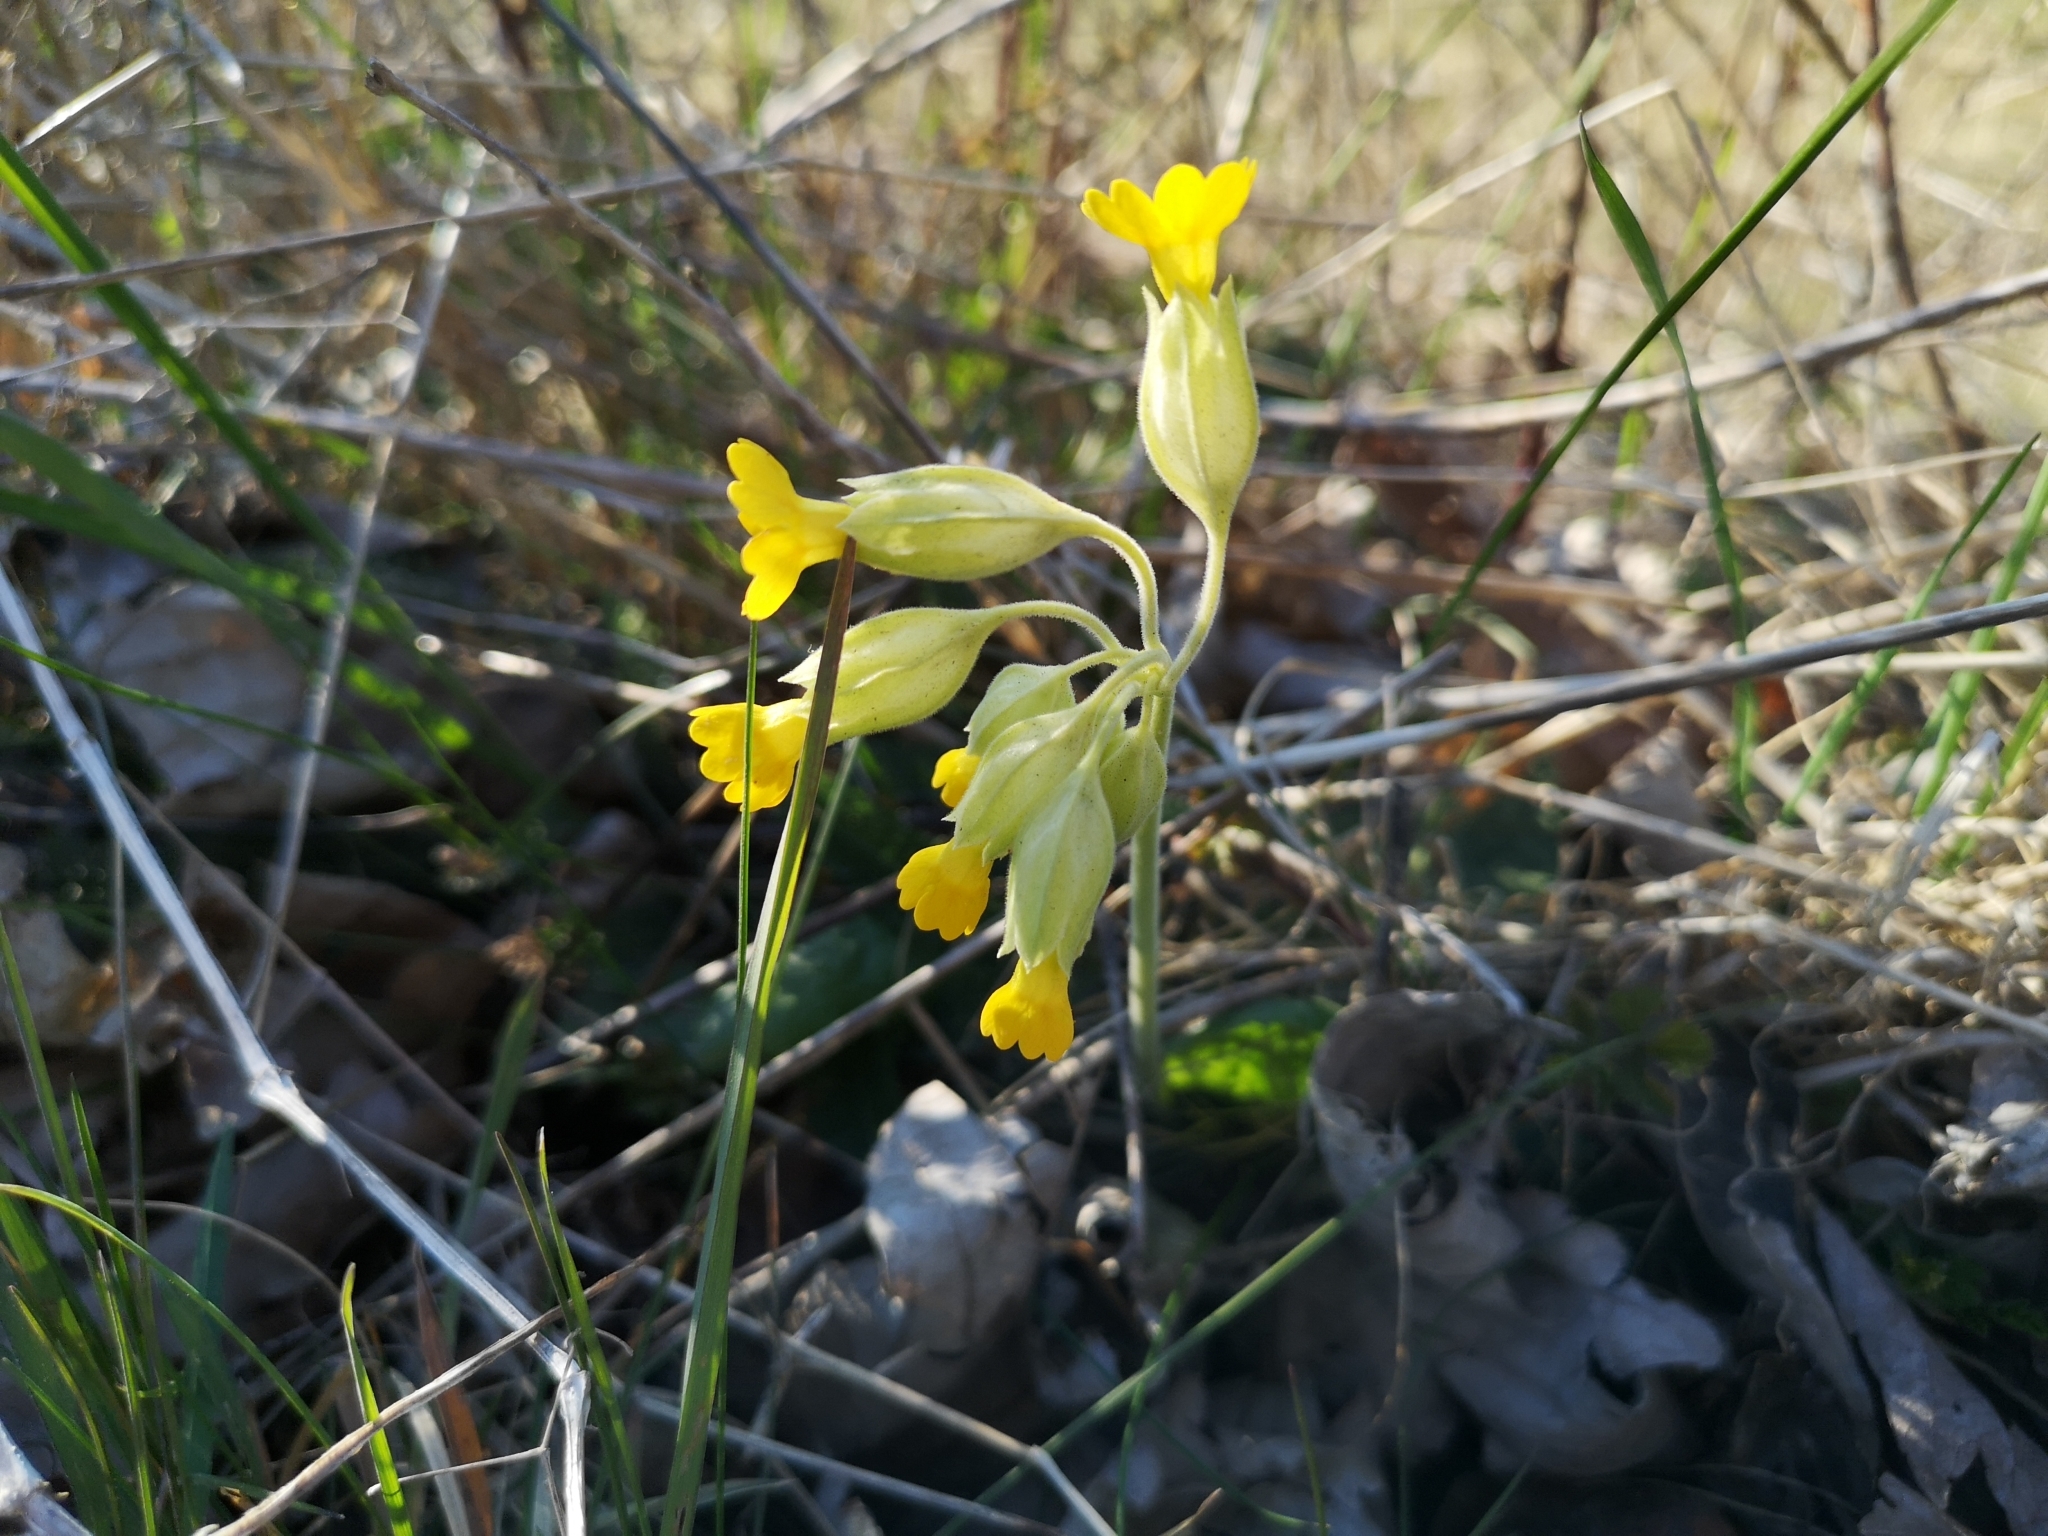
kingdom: Plantae
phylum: Tracheophyta
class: Magnoliopsida
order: Ericales
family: Primulaceae
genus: Primula
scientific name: Primula veris
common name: Cowslip
